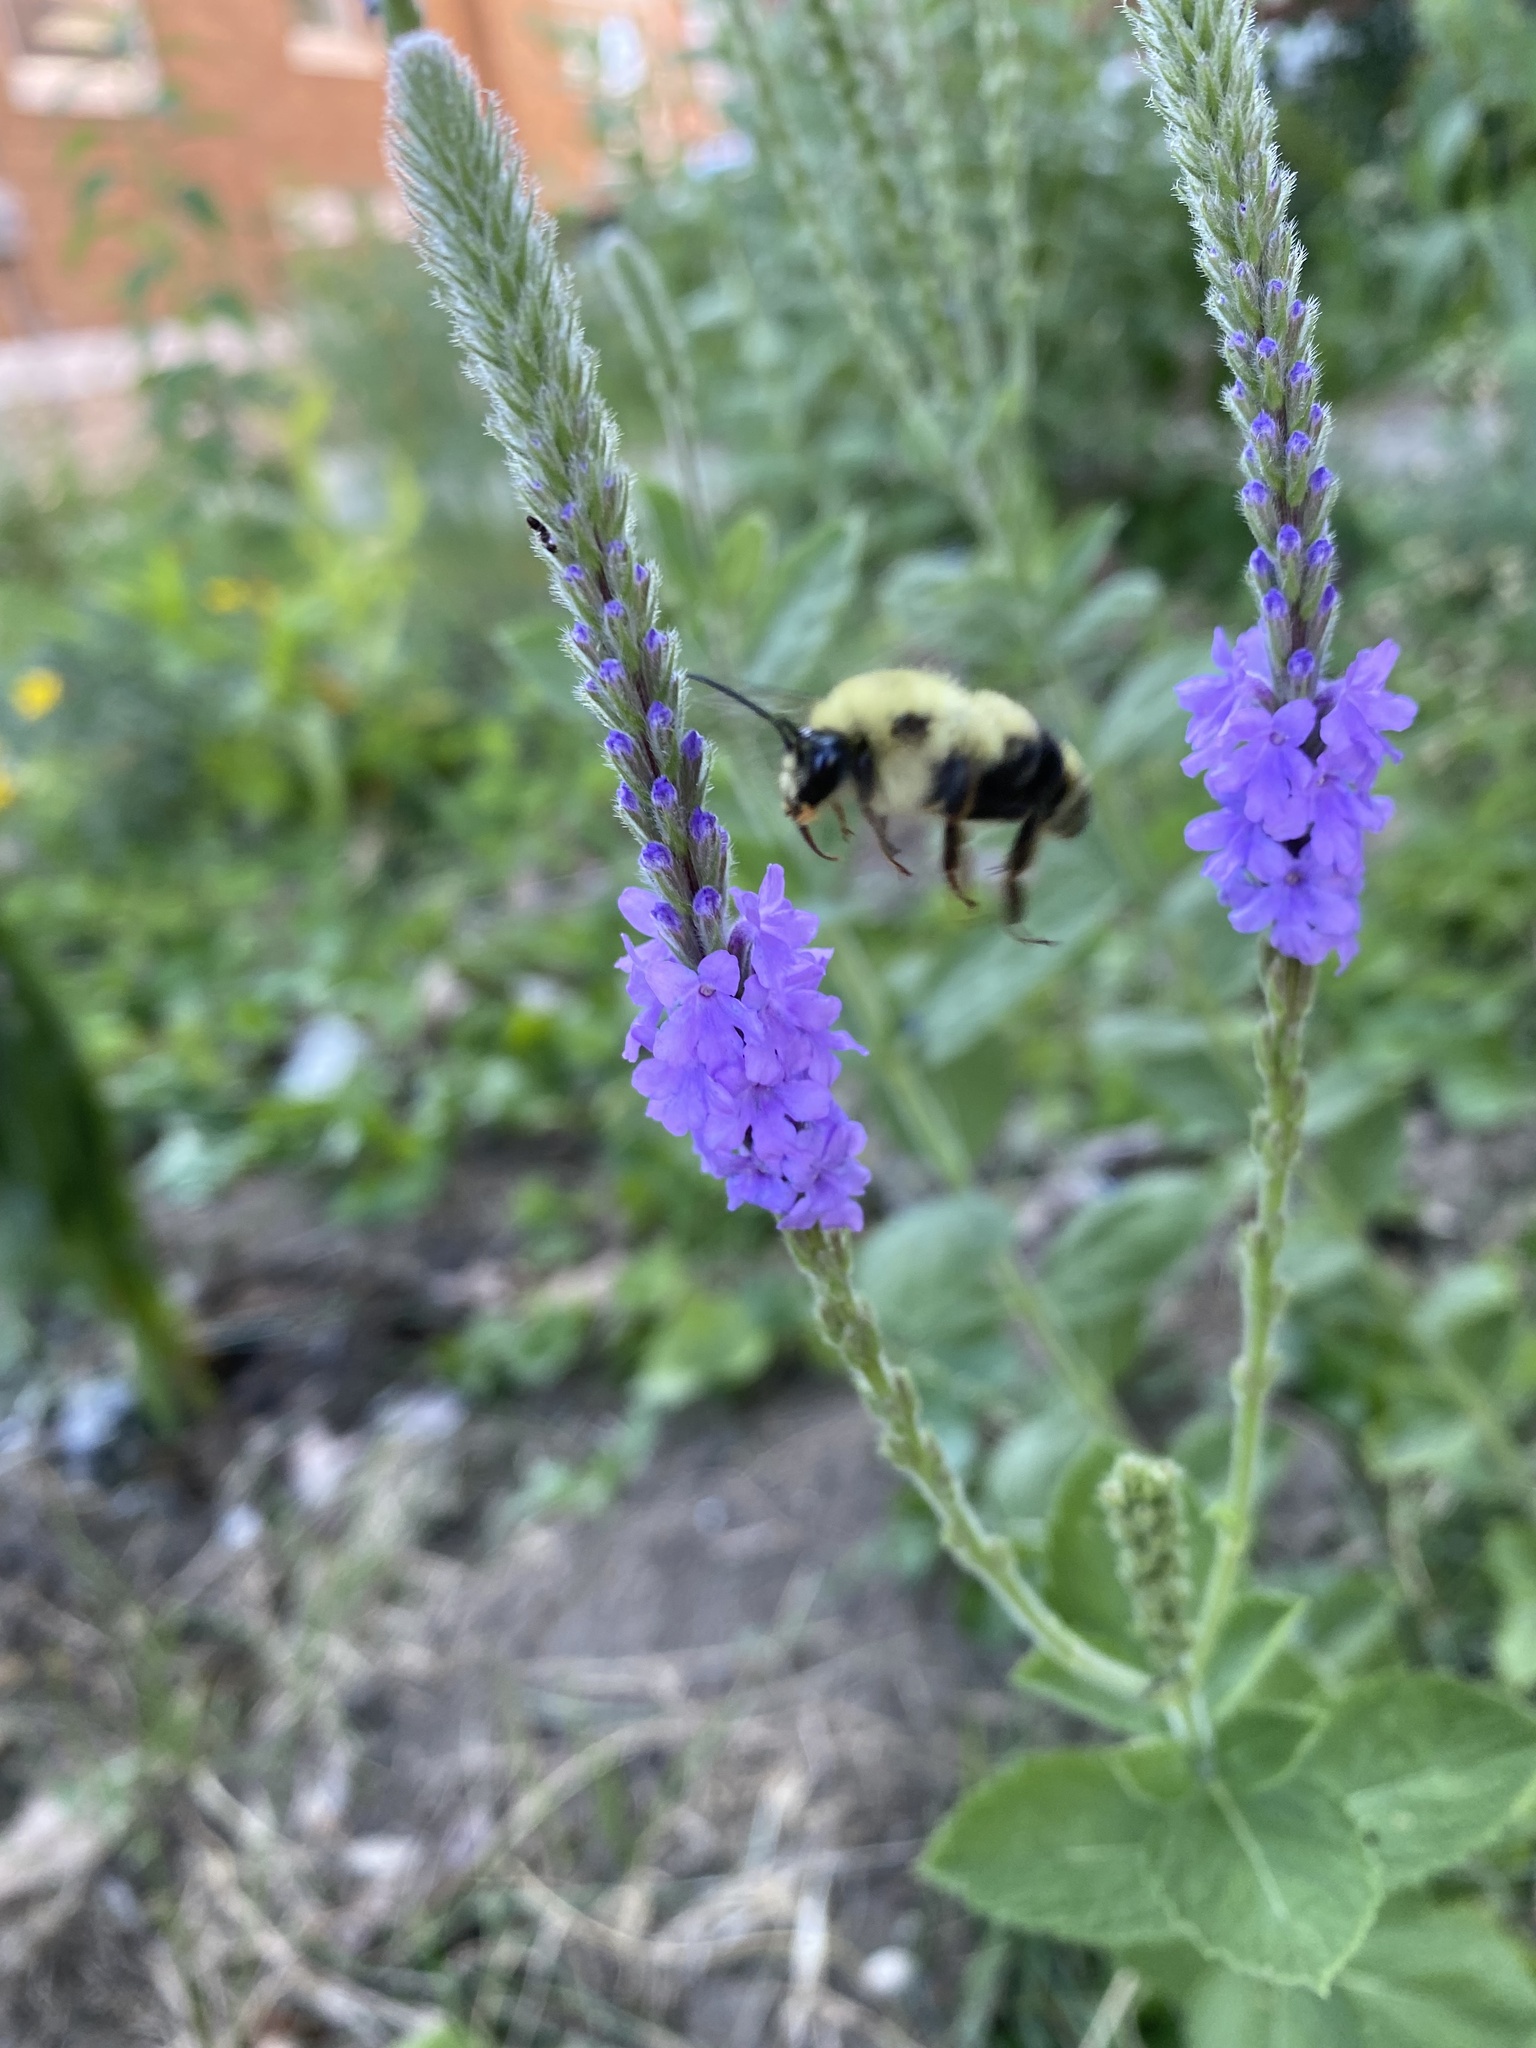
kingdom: Animalia
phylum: Arthropoda
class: Insecta
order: Hymenoptera
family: Apidae
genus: Bombus
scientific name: Bombus bimaculatus
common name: Two-spotted bumble bee
